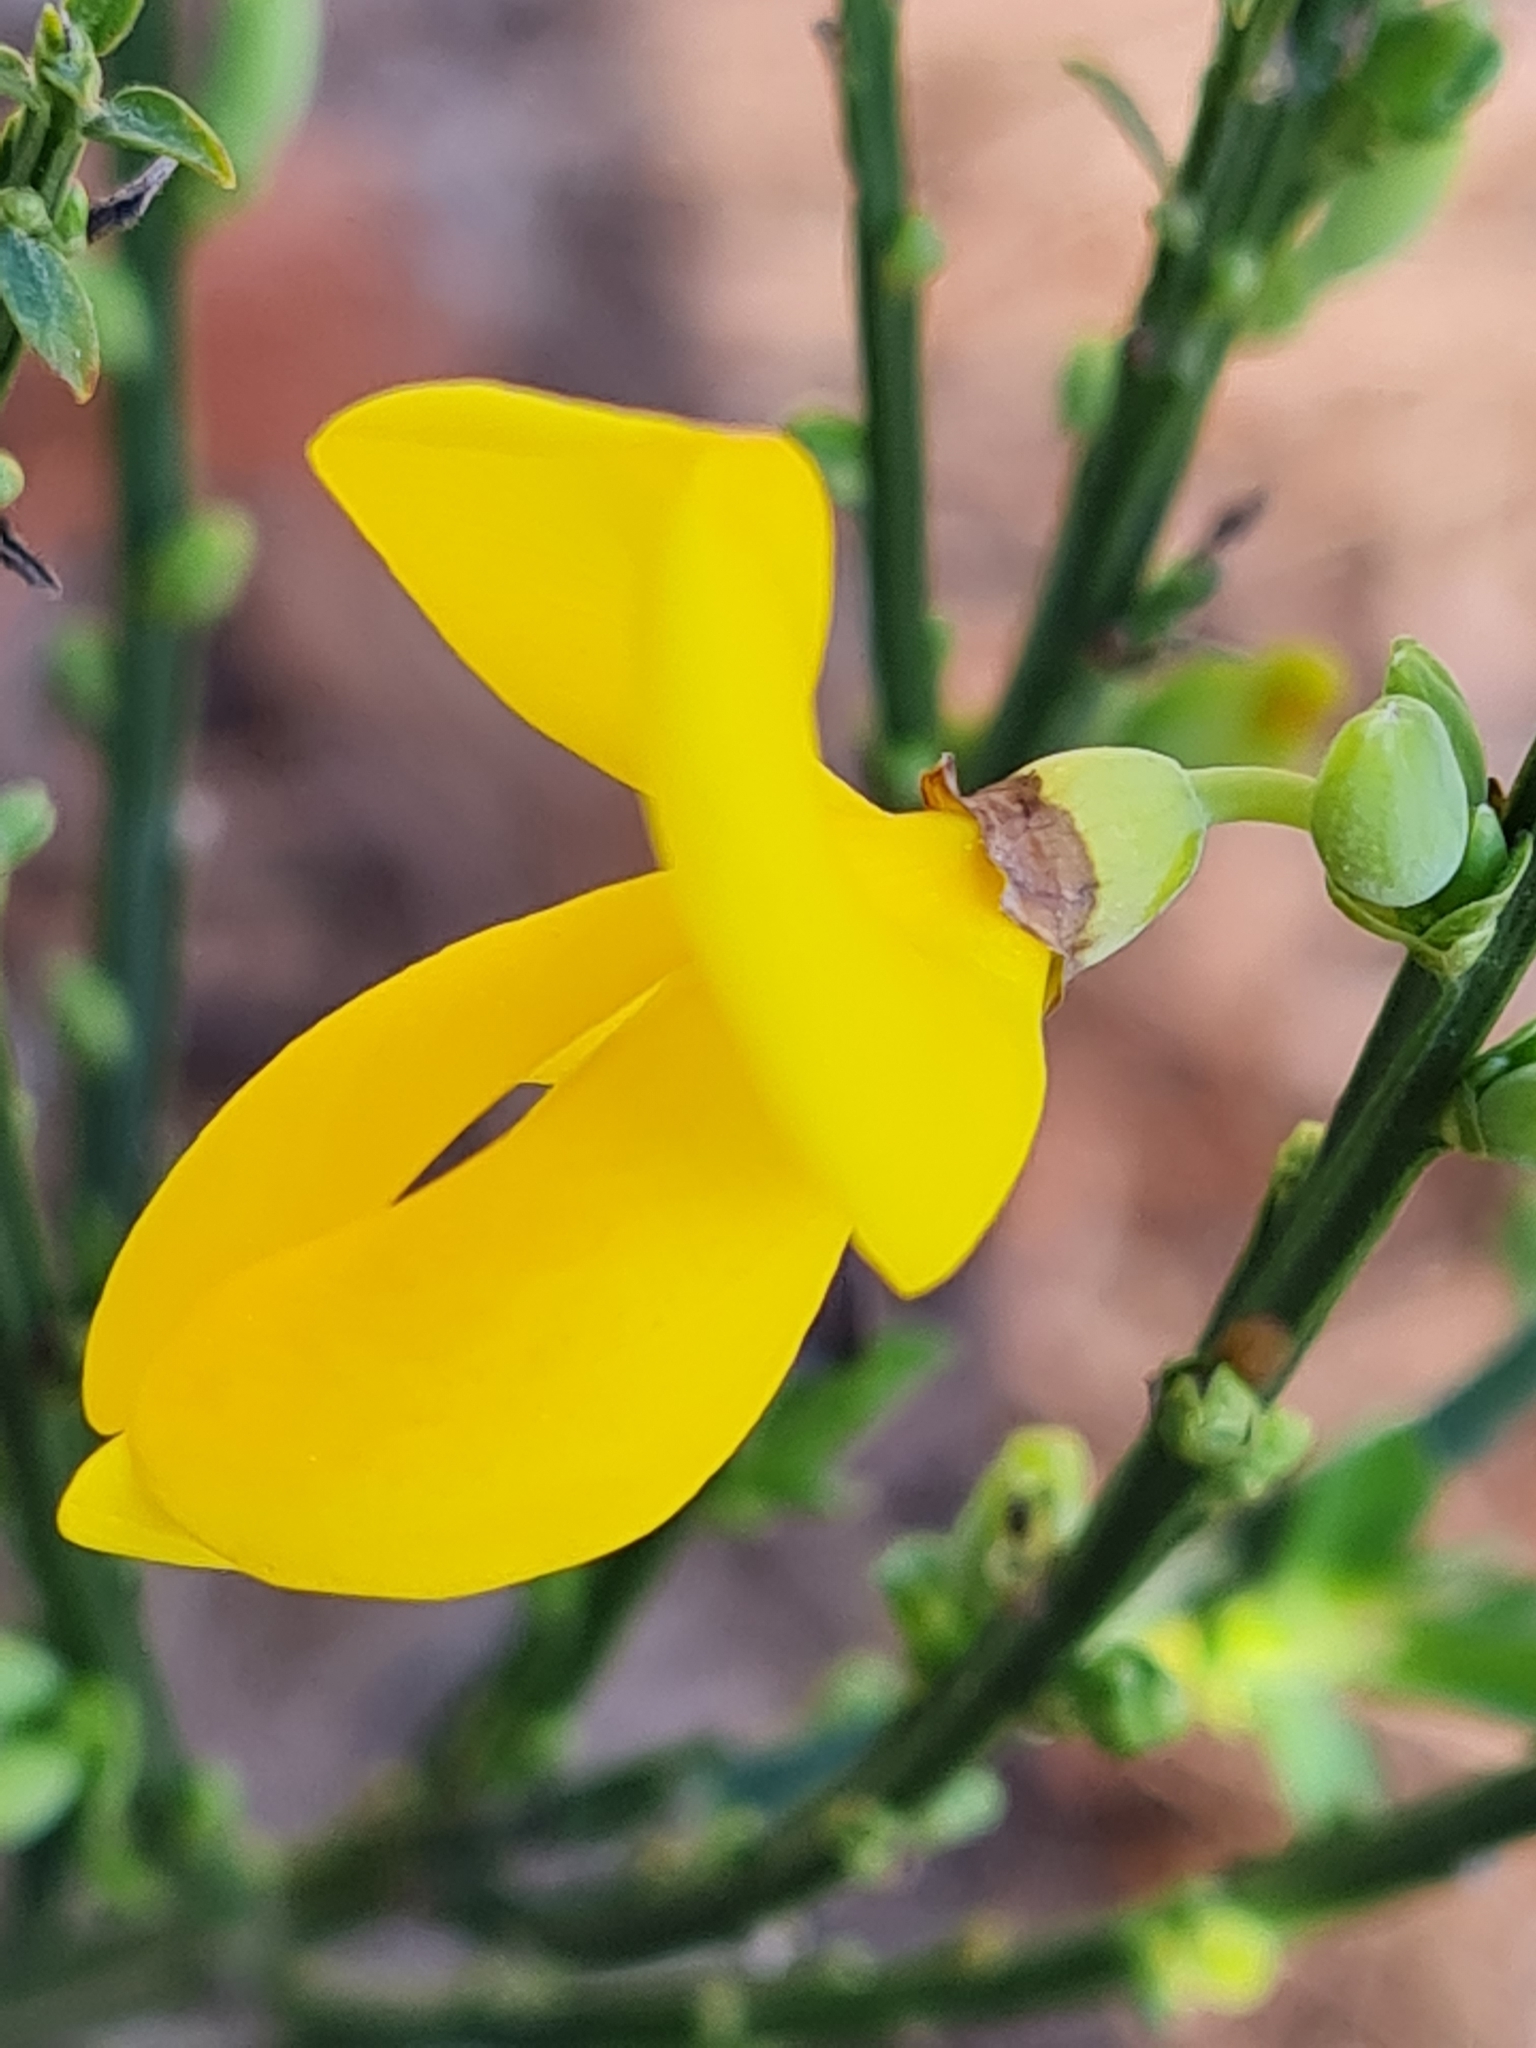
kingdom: Plantae
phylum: Tracheophyta
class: Magnoliopsida
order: Fabales
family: Fabaceae
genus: Cytisus
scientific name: Cytisus scoparius
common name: Scotch broom
